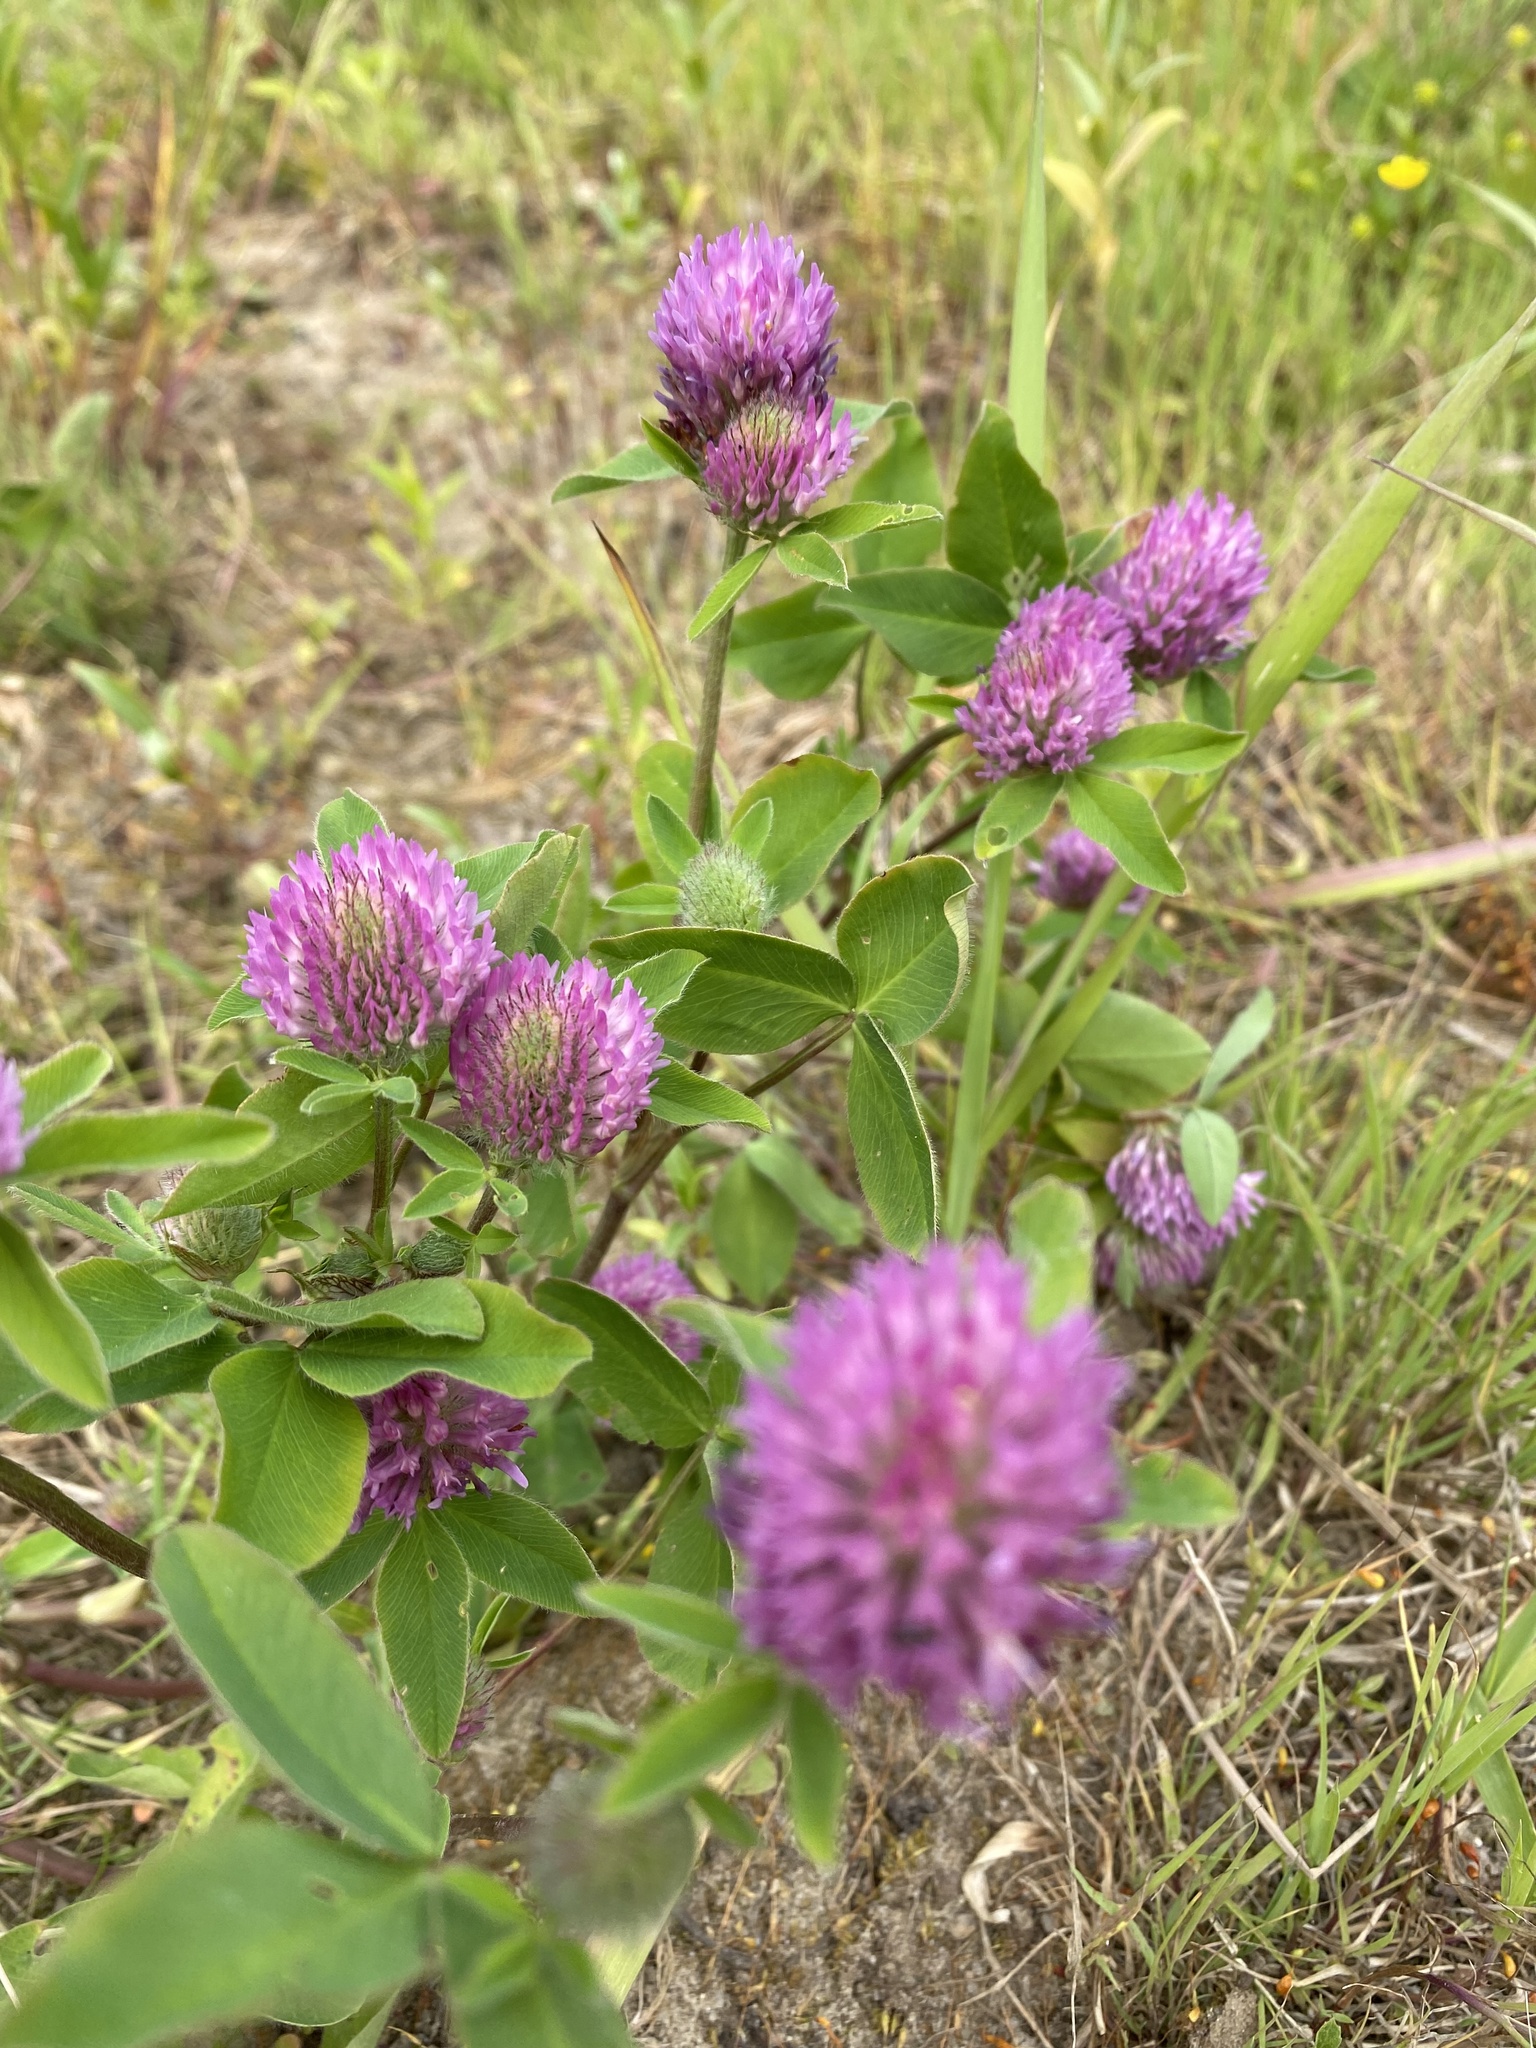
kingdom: Plantae
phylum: Tracheophyta
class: Magnoliopsida
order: Fabales
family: Fabaceae
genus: Trifolium
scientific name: Trifolium medium
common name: Zigzag clover
